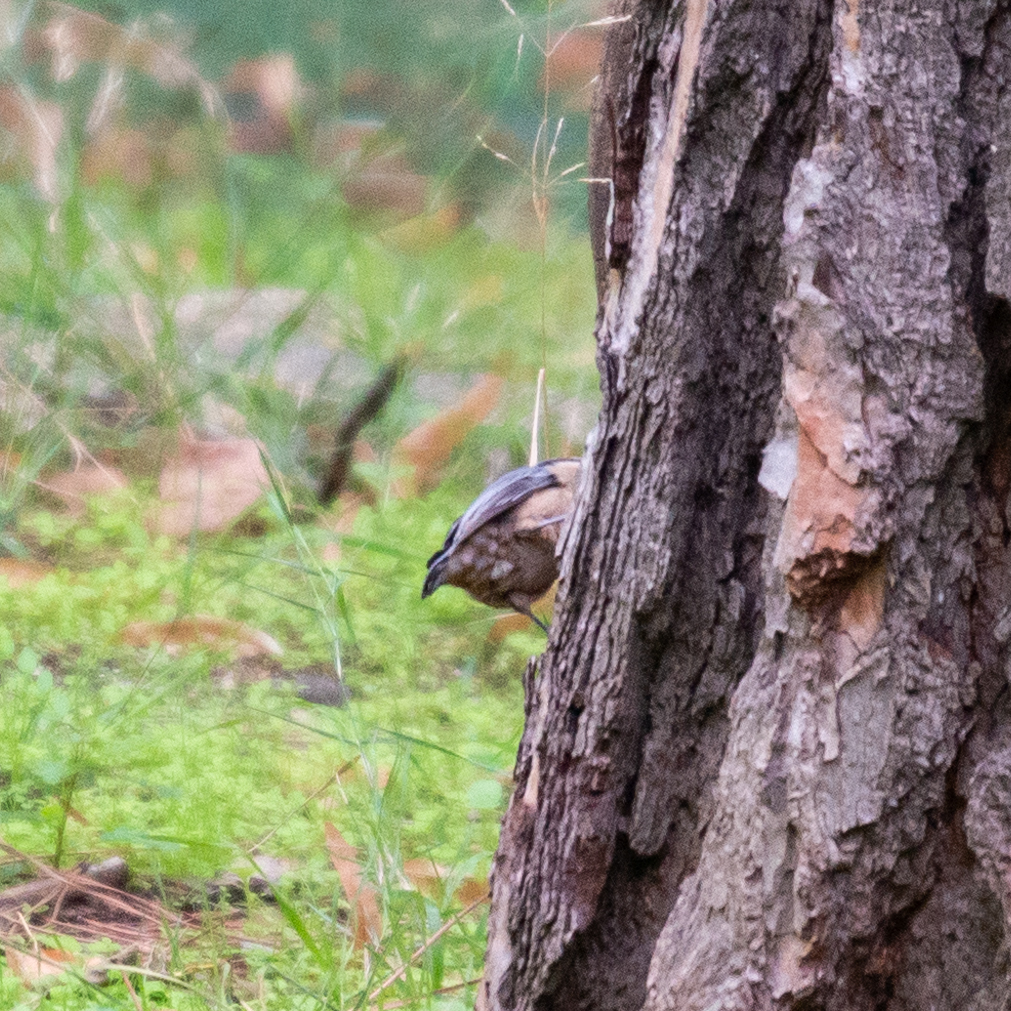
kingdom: Animalia
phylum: Chordata
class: Aves
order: Passeriformes
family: Sittidae
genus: Sitta
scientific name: Sitta europaea
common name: Eurasian nuthatch
